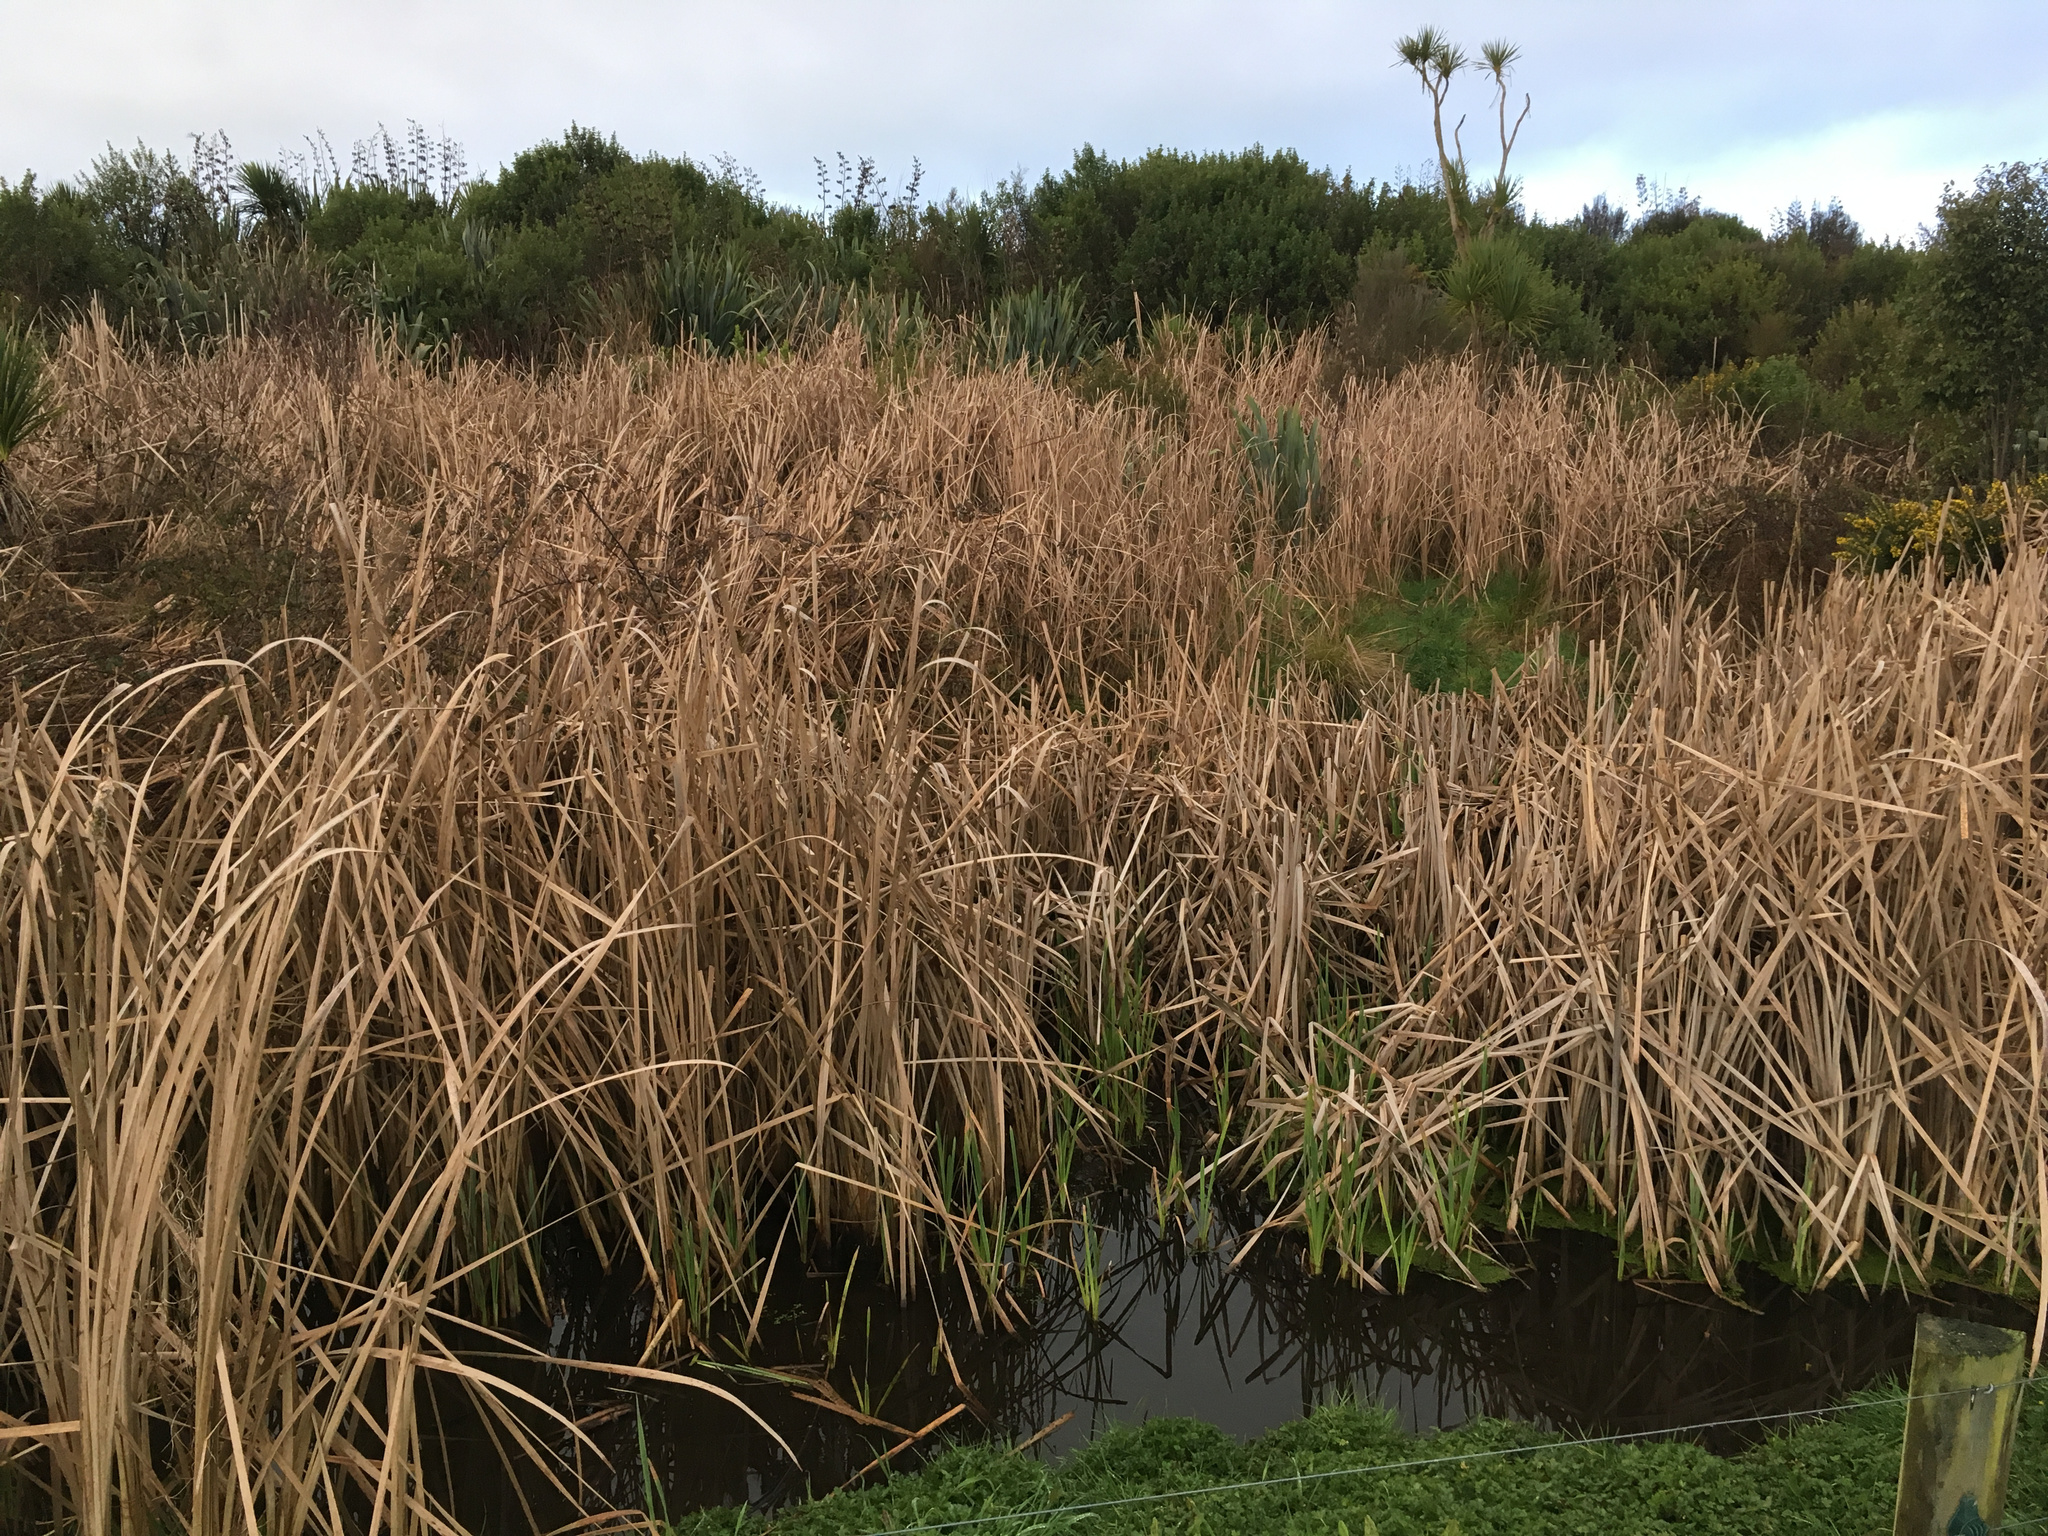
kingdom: Plantae
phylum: Tracheophyta
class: Liliopsida
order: Poales
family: Typhaceae
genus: Typha
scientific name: Typha orientalis
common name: Bullrush
